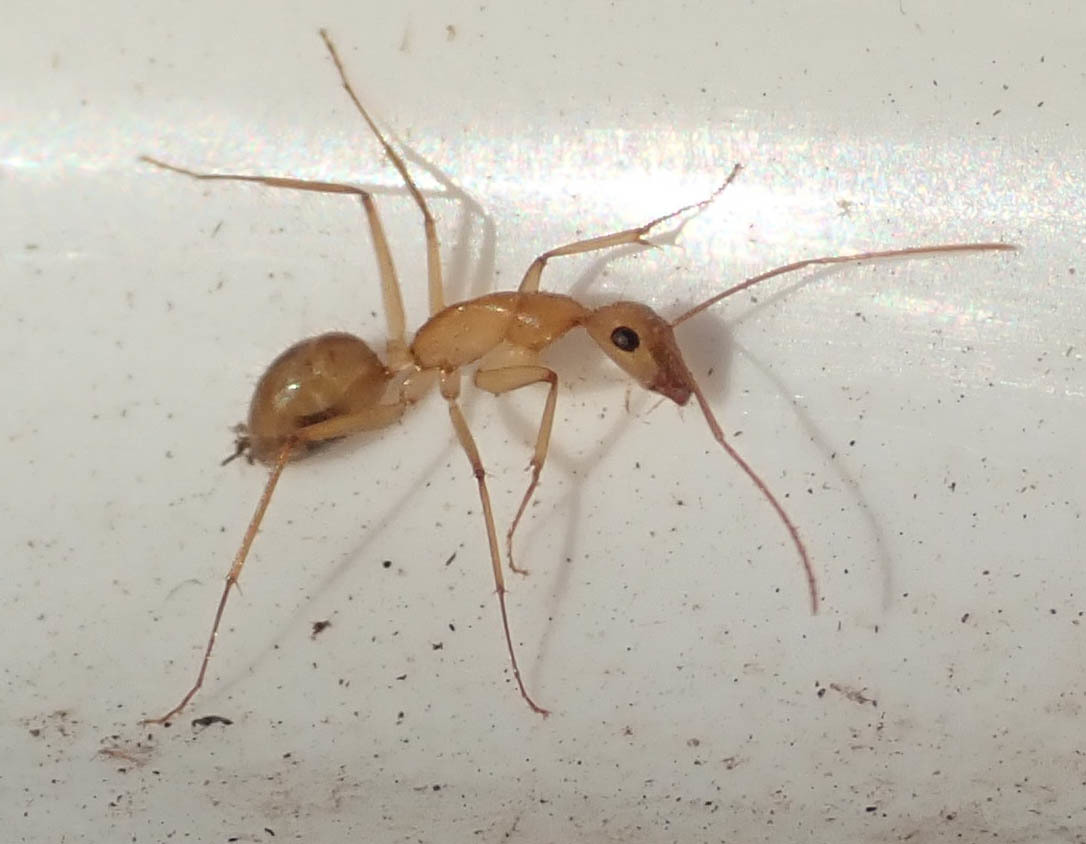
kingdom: Animalia
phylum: Arthropoda
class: Insecta
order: Hymenoptera
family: Formicidae
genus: Camponotus
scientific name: Camponotus mystaceus
